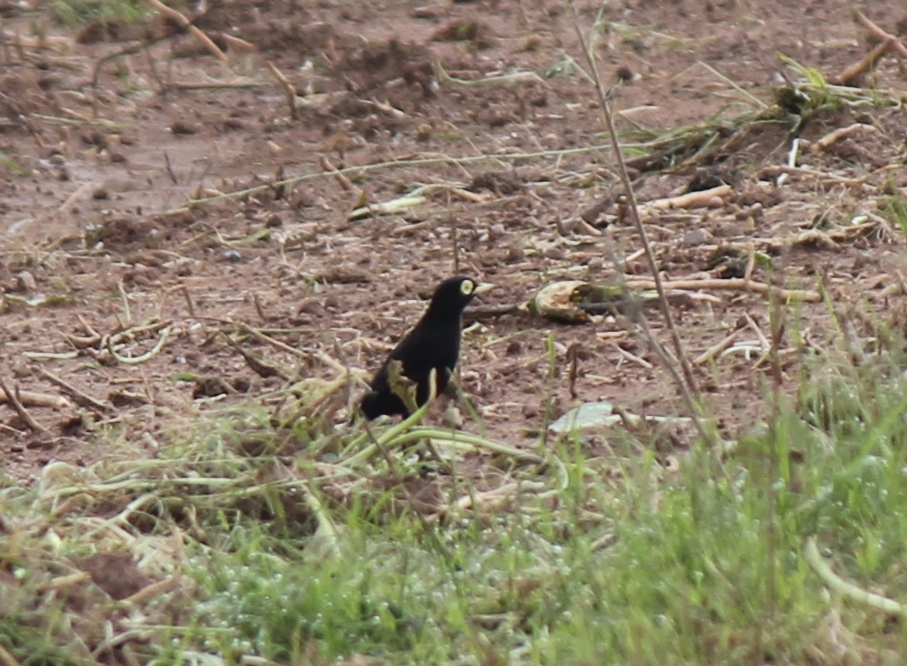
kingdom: Animalia
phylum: Chordata
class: Aves
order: Passeriformes
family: Tyrannidae
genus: Hymenops
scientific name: Hymenops perspicillatus
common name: Spectacled tyrant
